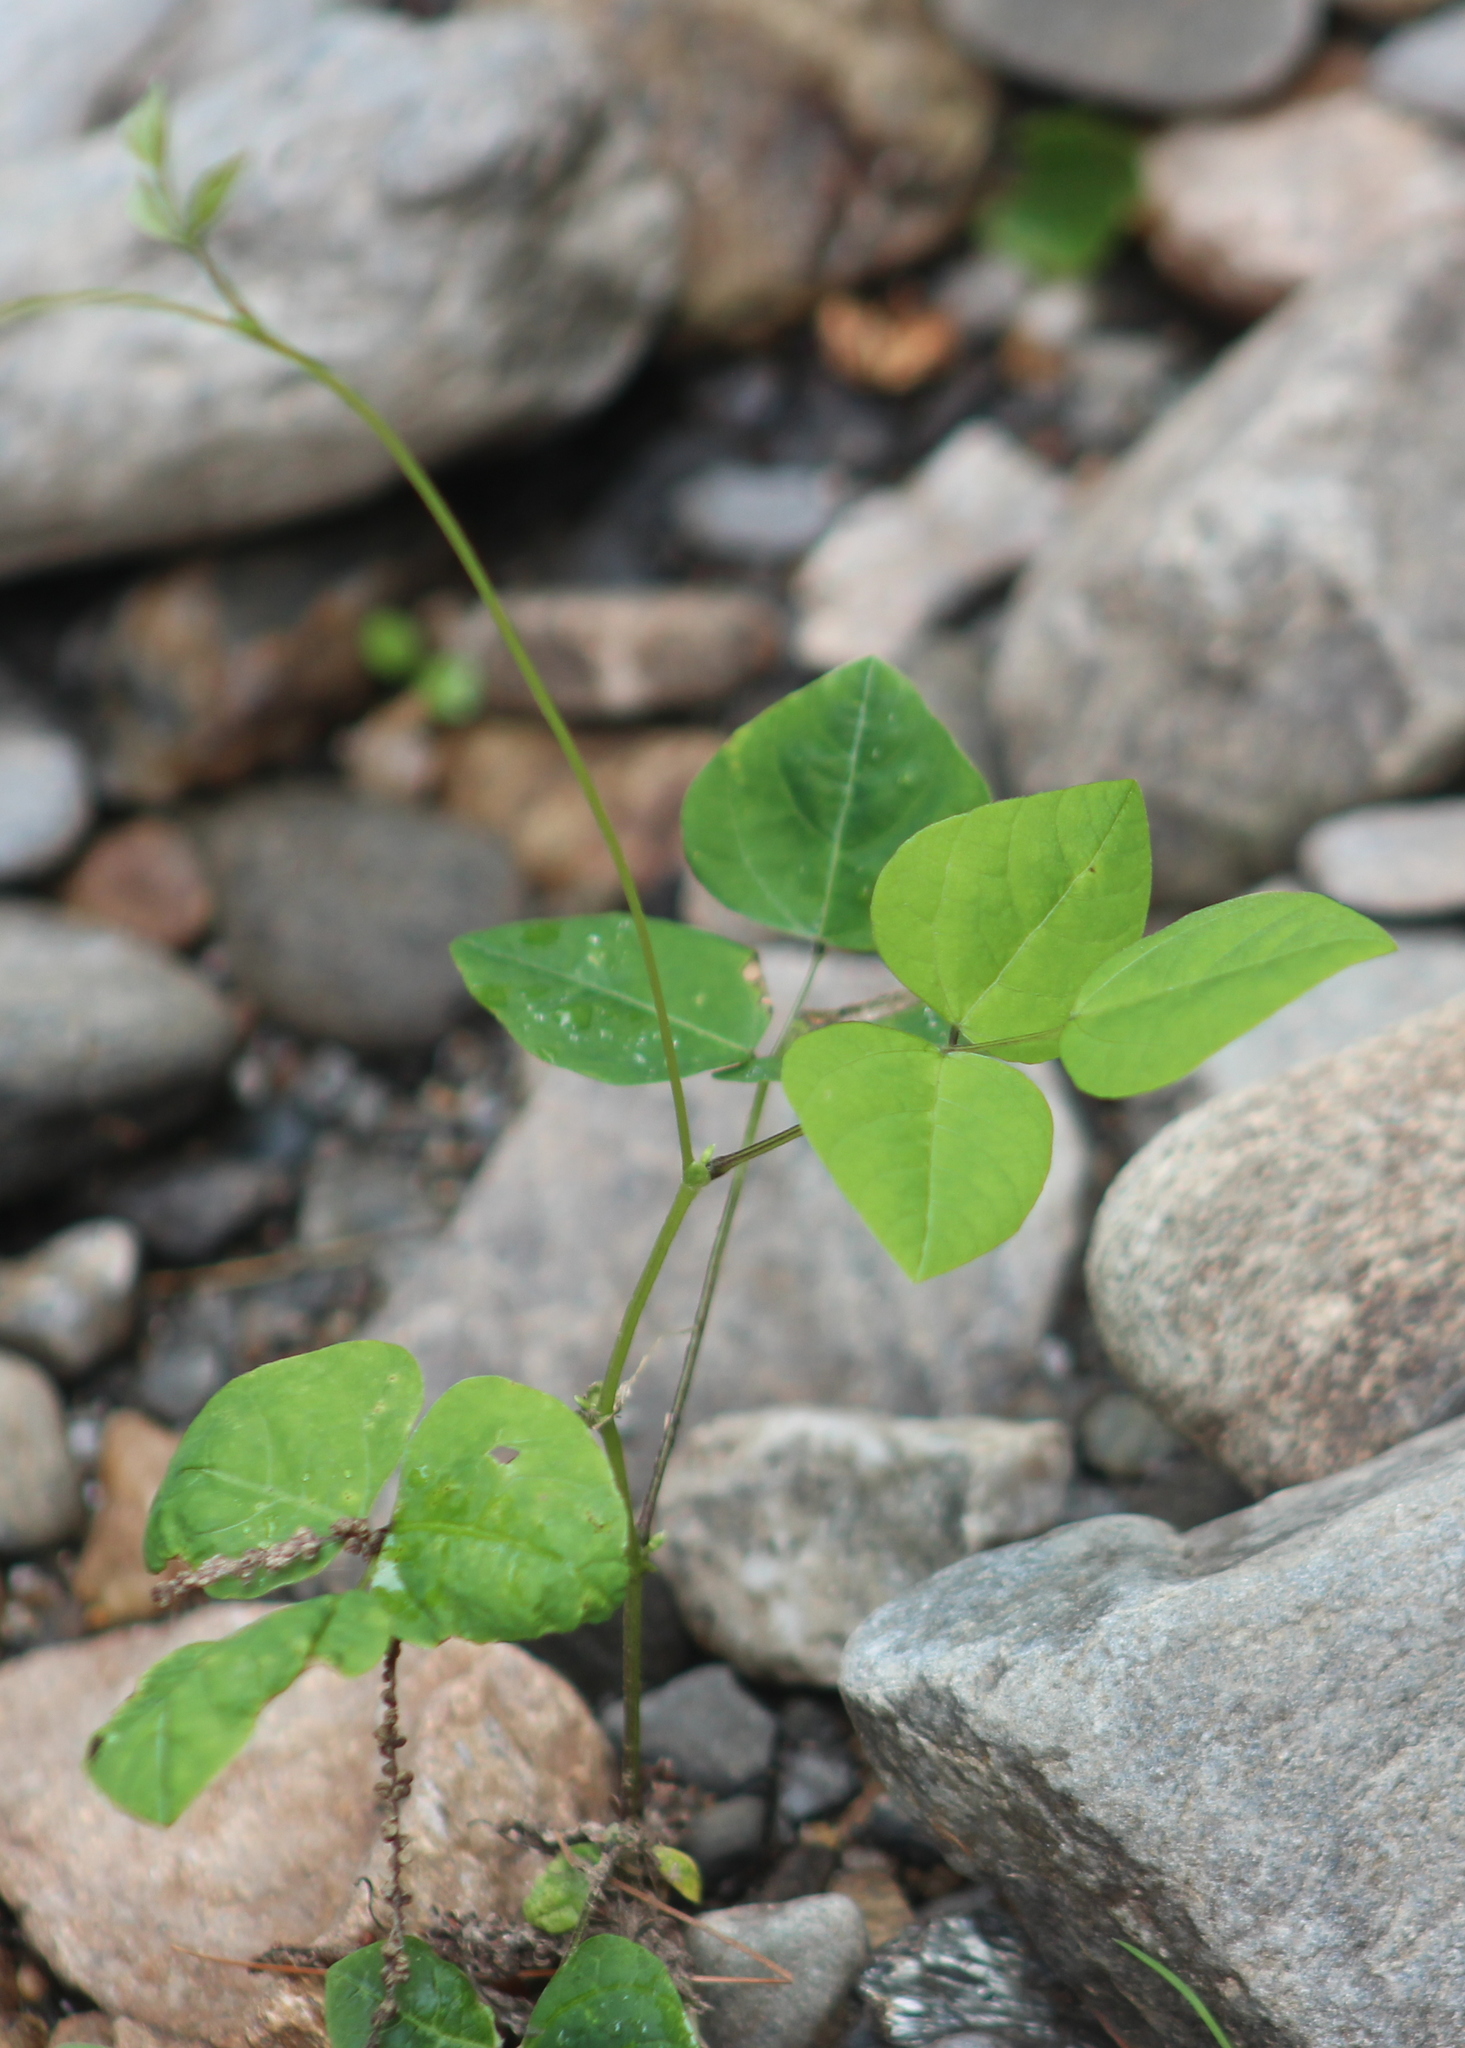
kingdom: Plantae
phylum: Tracheophyta
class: Magnoliopsida
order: Fabales
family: Fabaceae
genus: Amphicarpaea
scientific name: Amphicarpaea bracteata
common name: American hog peanut
